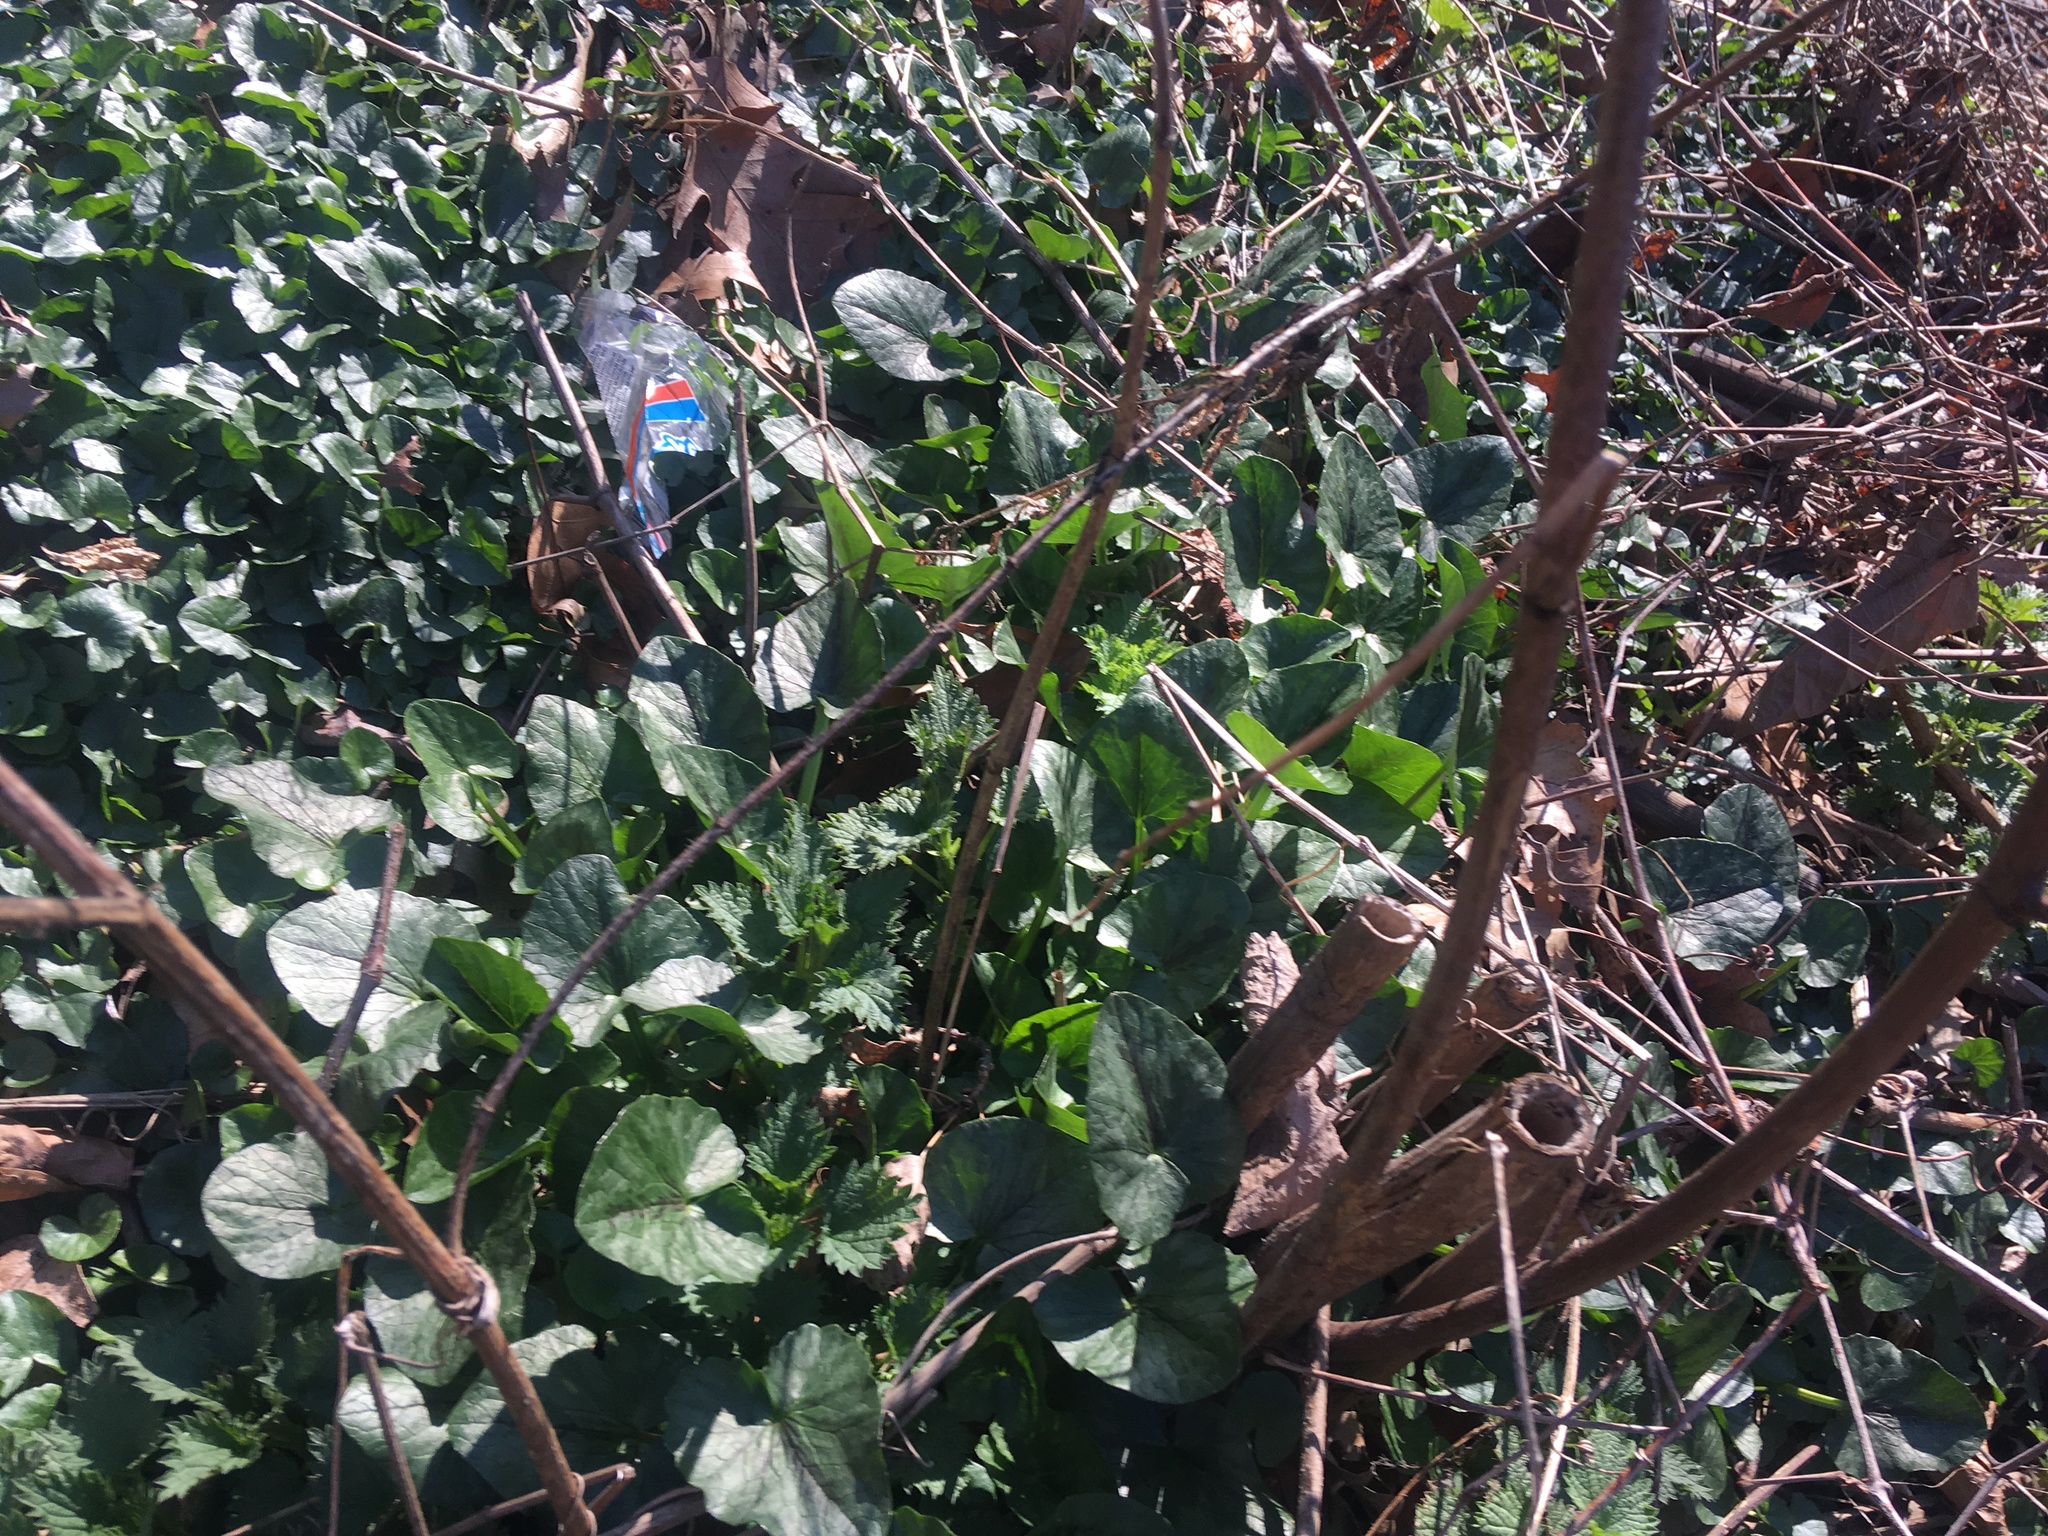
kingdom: Plantae
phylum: Tracheophyta
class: Magnoliopsida
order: Ranunculales
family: Ranunculaceae
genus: Ficaria
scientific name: Ficaria verna
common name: Lesser celandine
